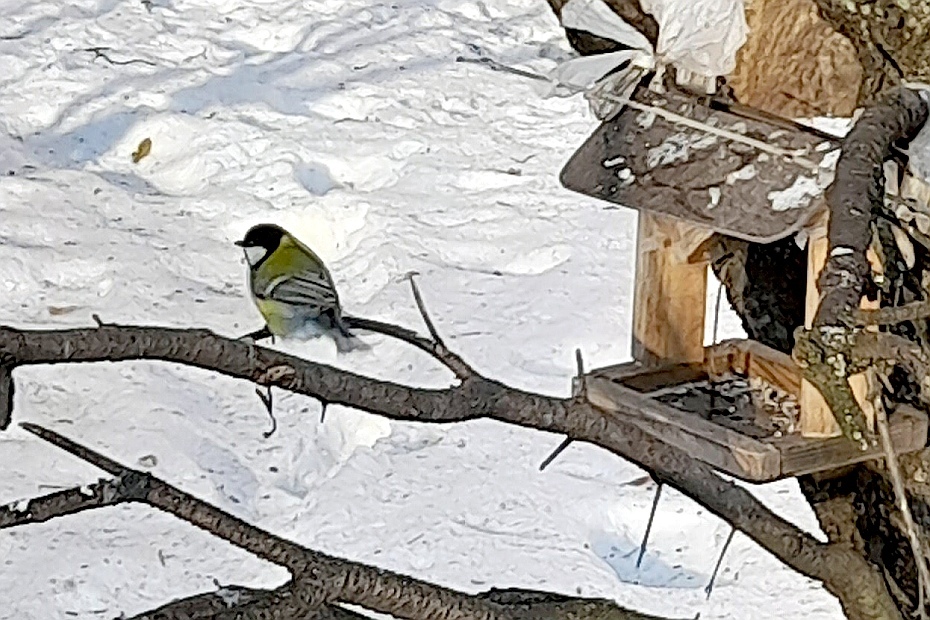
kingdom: Animalia
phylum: Chordata
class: Aves
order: Passeriformes
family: Paridae
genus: Parus
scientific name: Parus major
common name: Great tit
